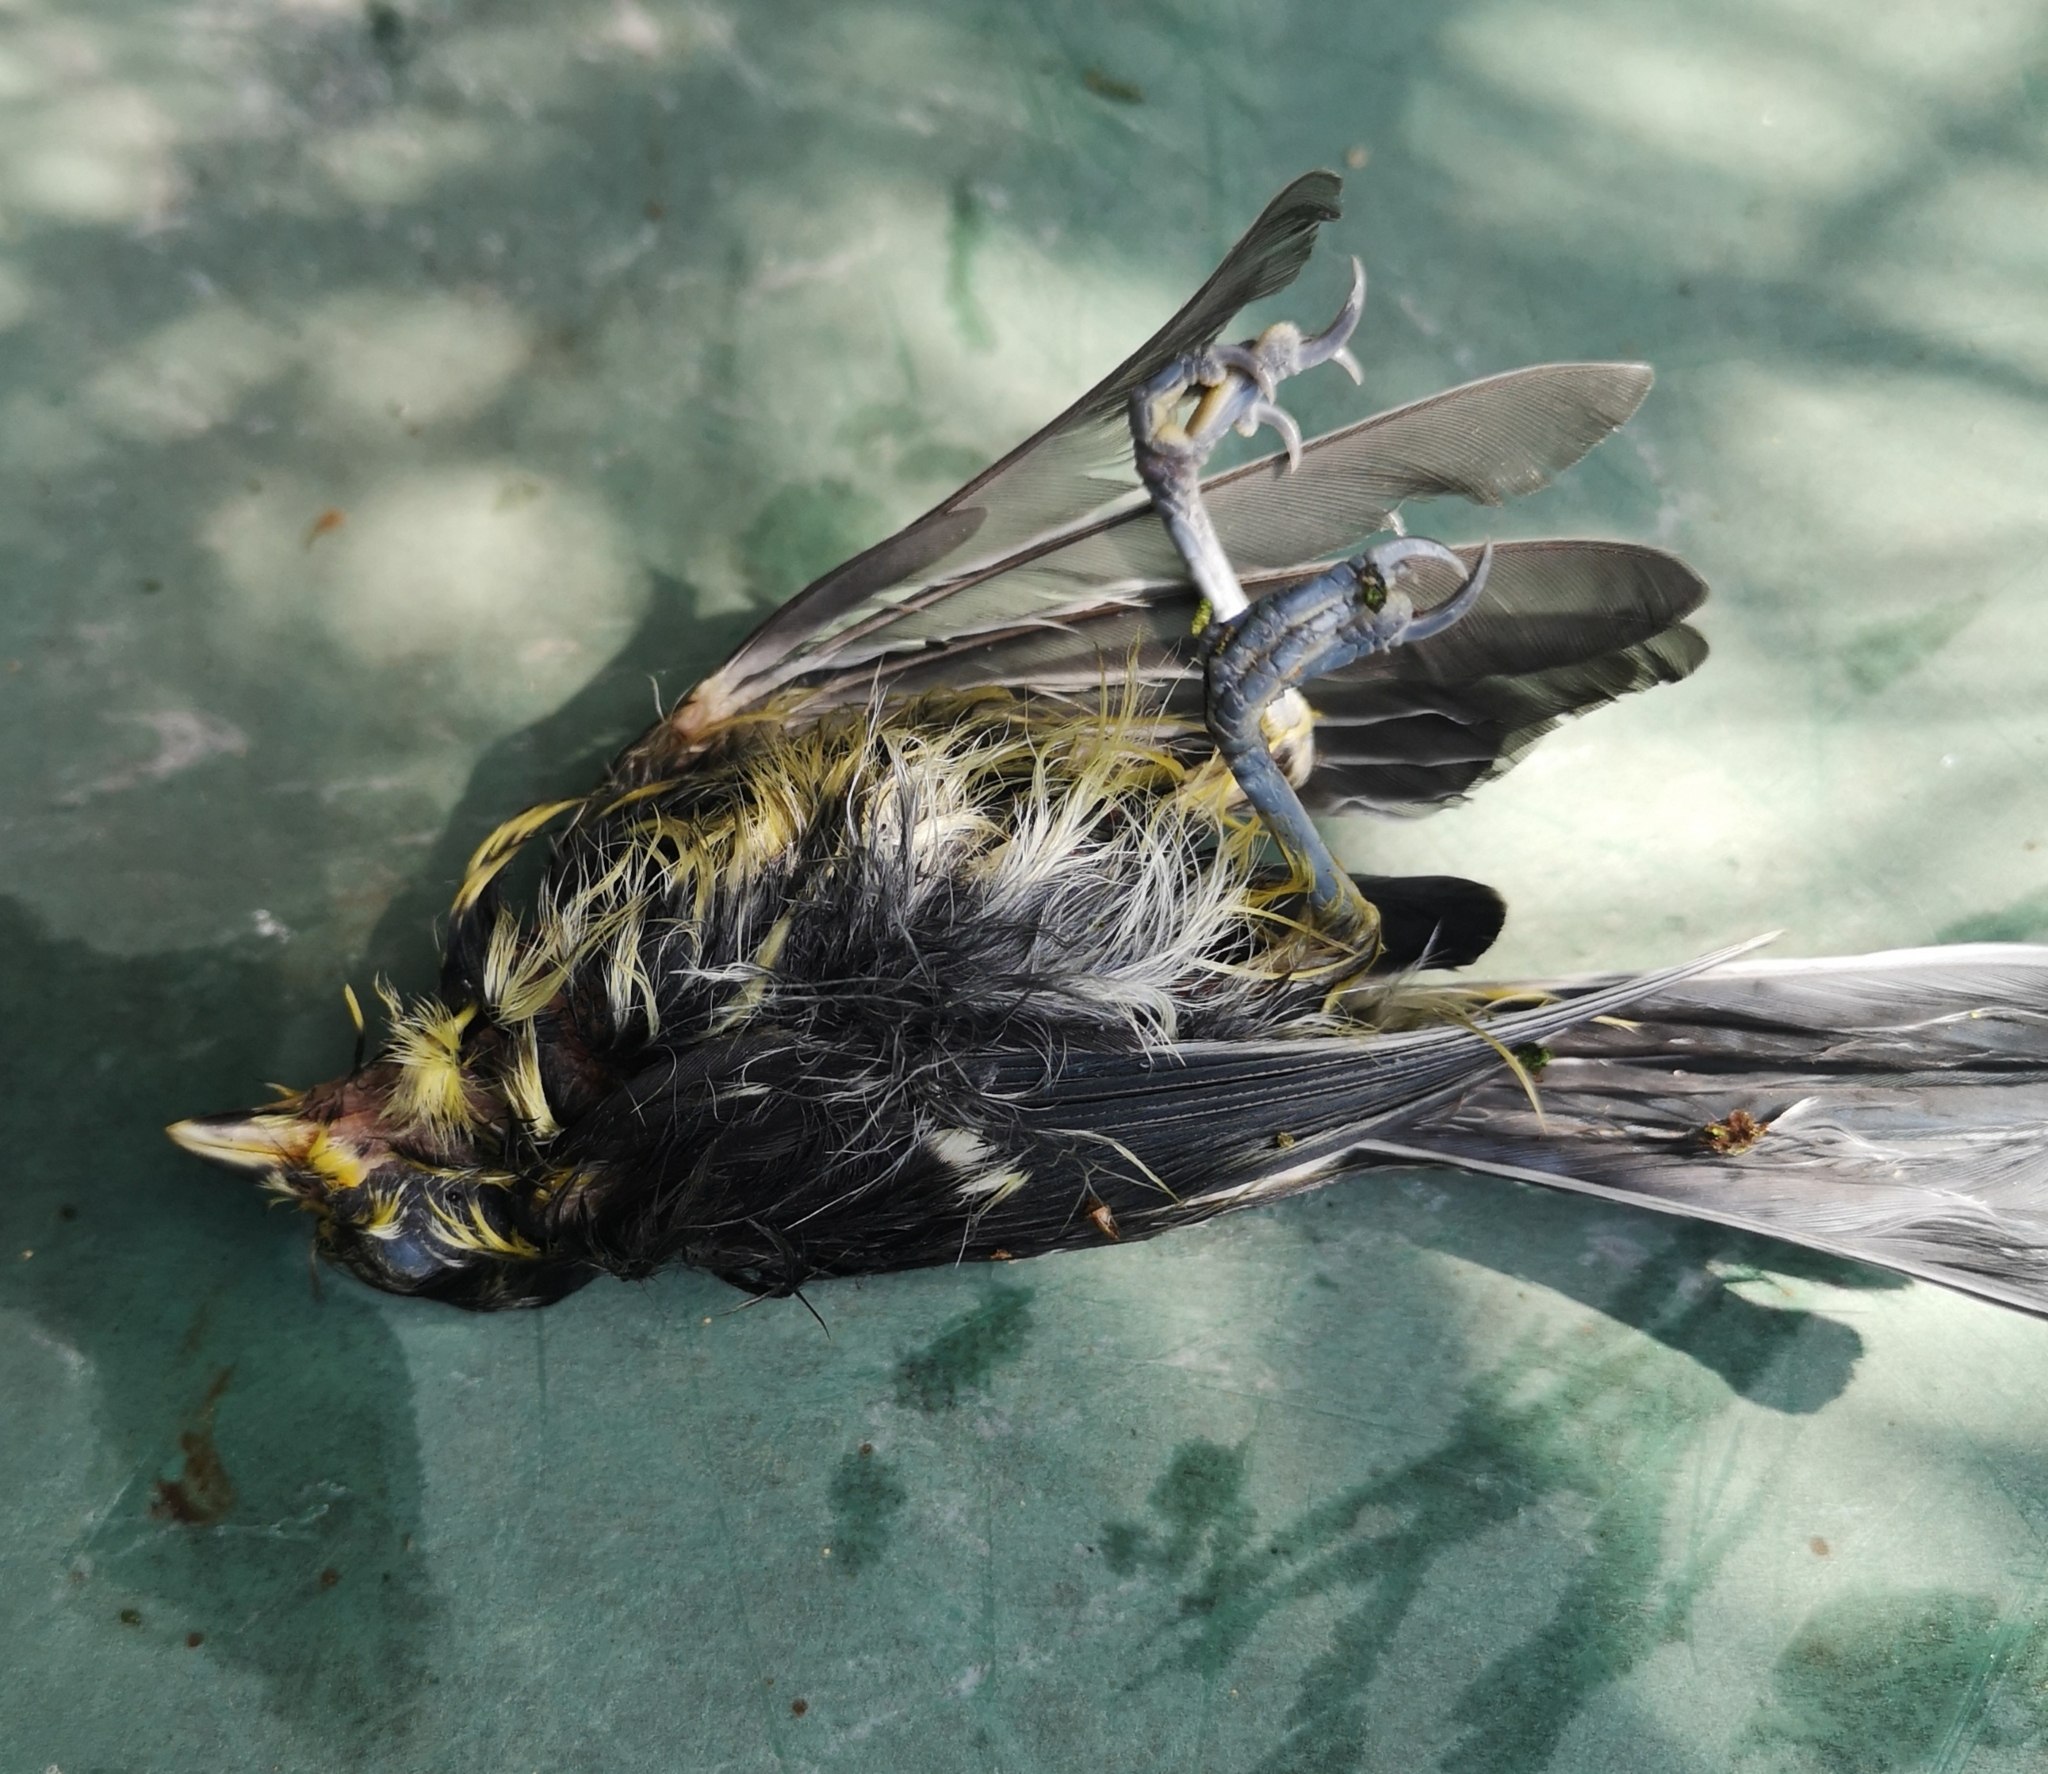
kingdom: Animalia
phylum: Chordata
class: Aves
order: Passeriformes
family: Paridae
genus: Parus
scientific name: Parus major
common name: Great tit
